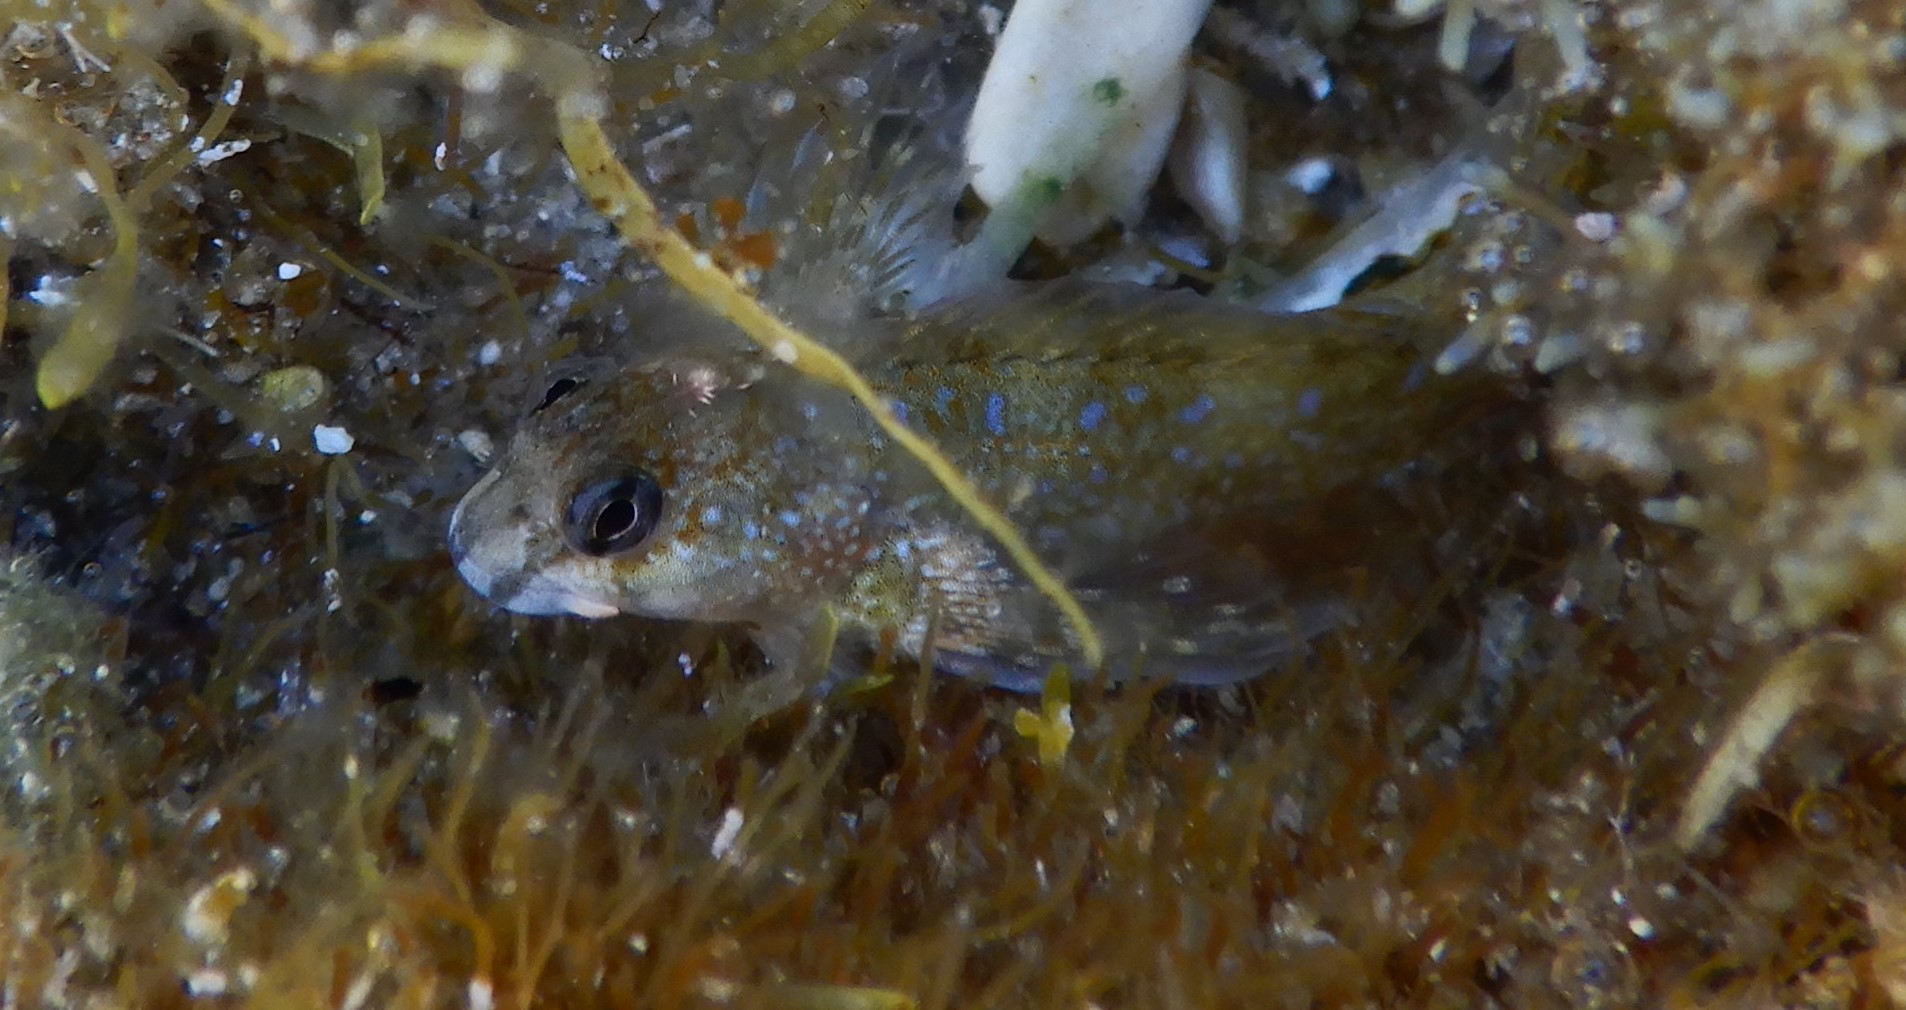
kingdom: Animalia
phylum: Chordata
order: Perciformes
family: Blenniidae
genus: Coryphoblennius
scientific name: Coryphoblennius galerita
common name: Montagu's blenny
